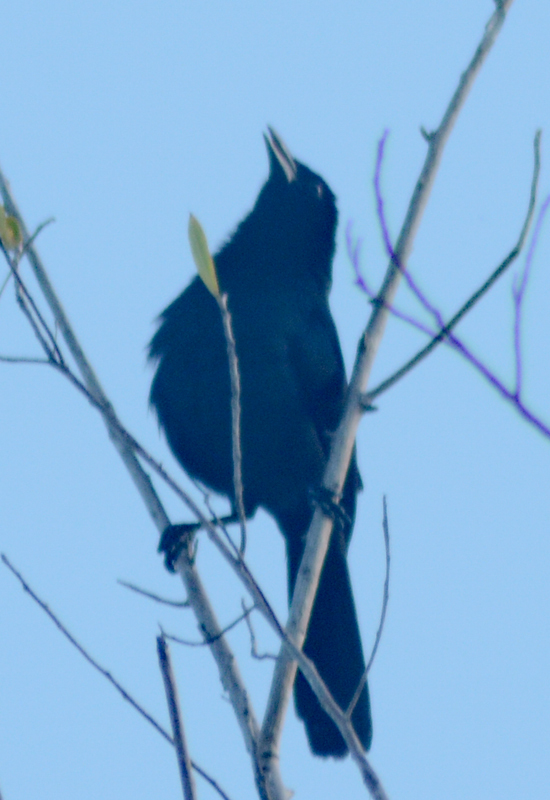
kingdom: Animalia
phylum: Chordata
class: Aves
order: Passeriformes
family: Icteridae
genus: Dives
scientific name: Dives dives
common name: Melodious blackbird
